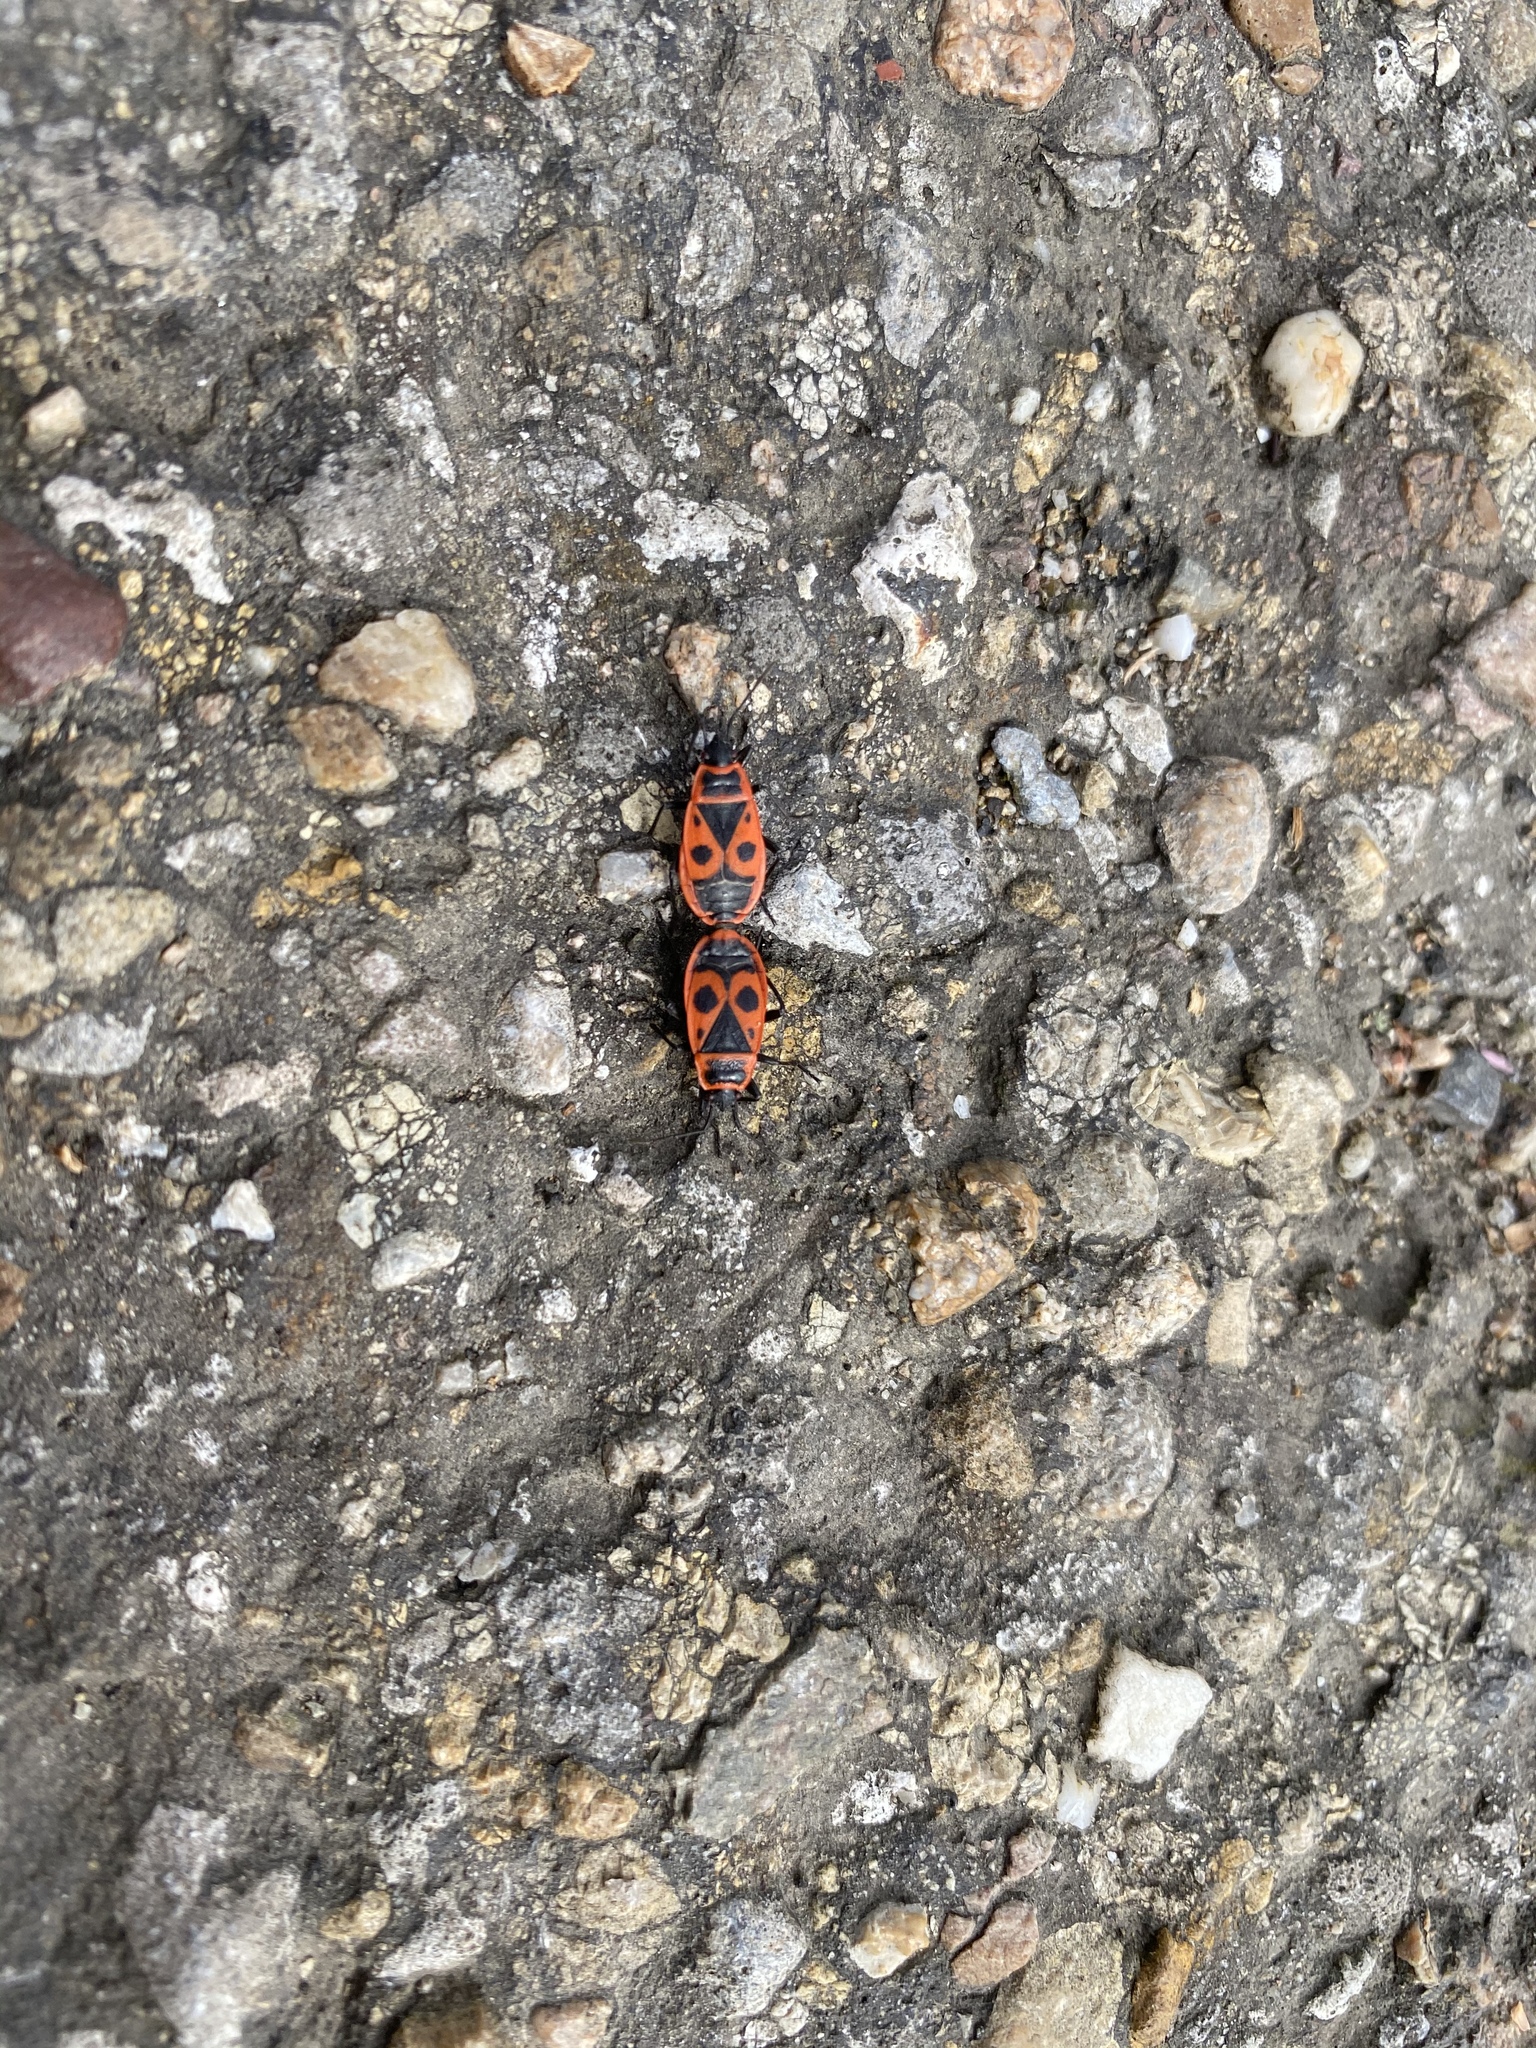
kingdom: Animalia
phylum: Arthropoda
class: Insecta
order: Hemiptera
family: Pyrrhocoridae
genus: Pyrrhocoris
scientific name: Pyrrhocoris apterus
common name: Firebug
